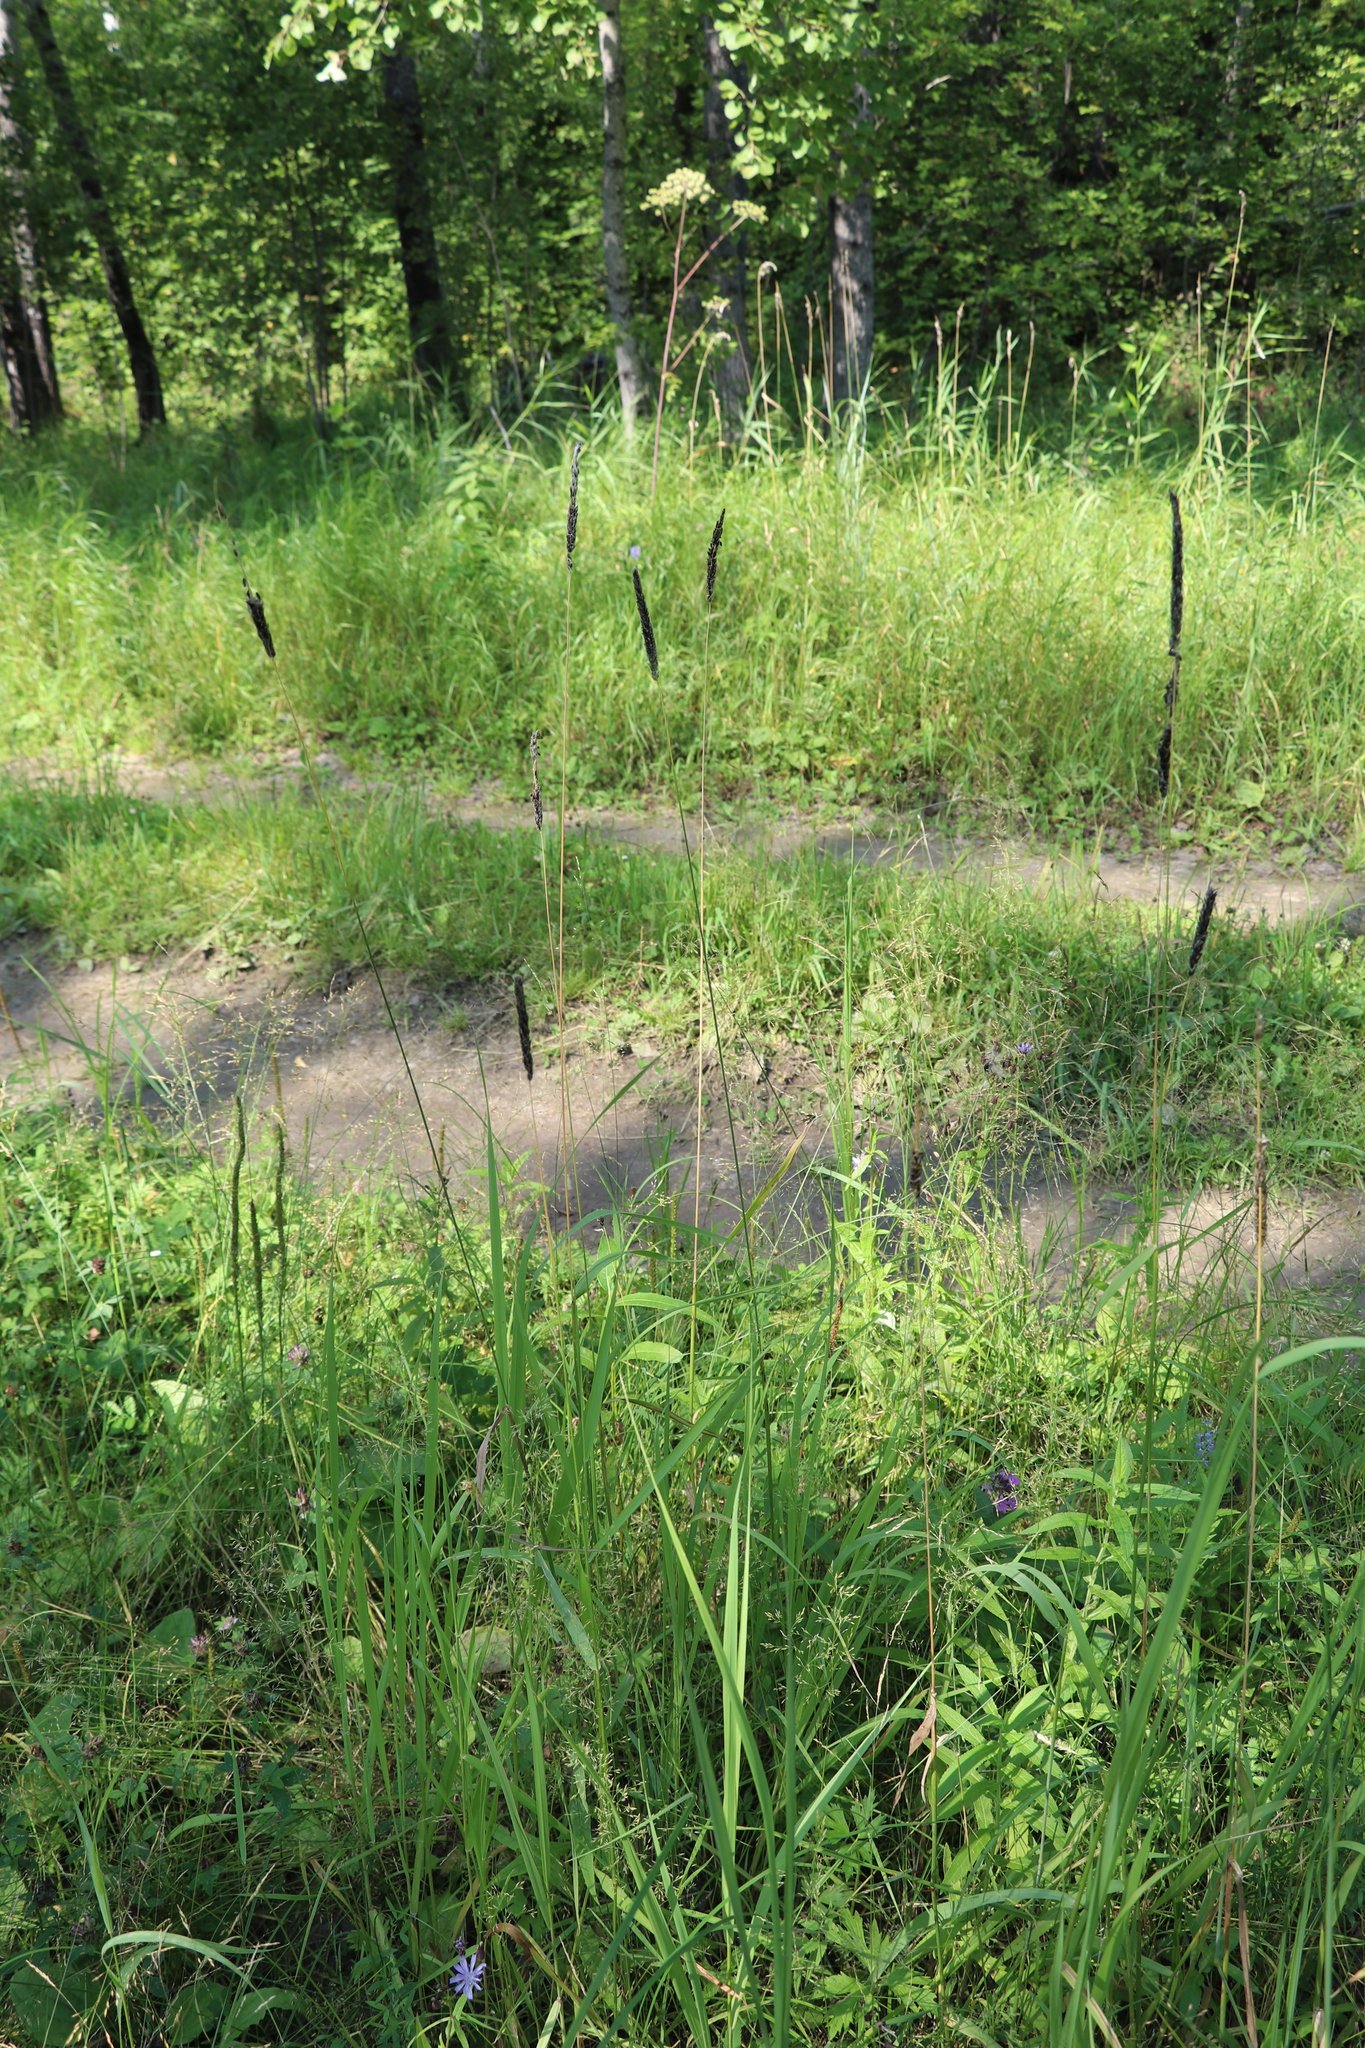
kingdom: Plantae
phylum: Tracheophyta
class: Liliopsida
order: Poales
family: Poaceae
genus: Alopecurus
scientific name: Alopecurus pratensis
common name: Meadow foxtail
